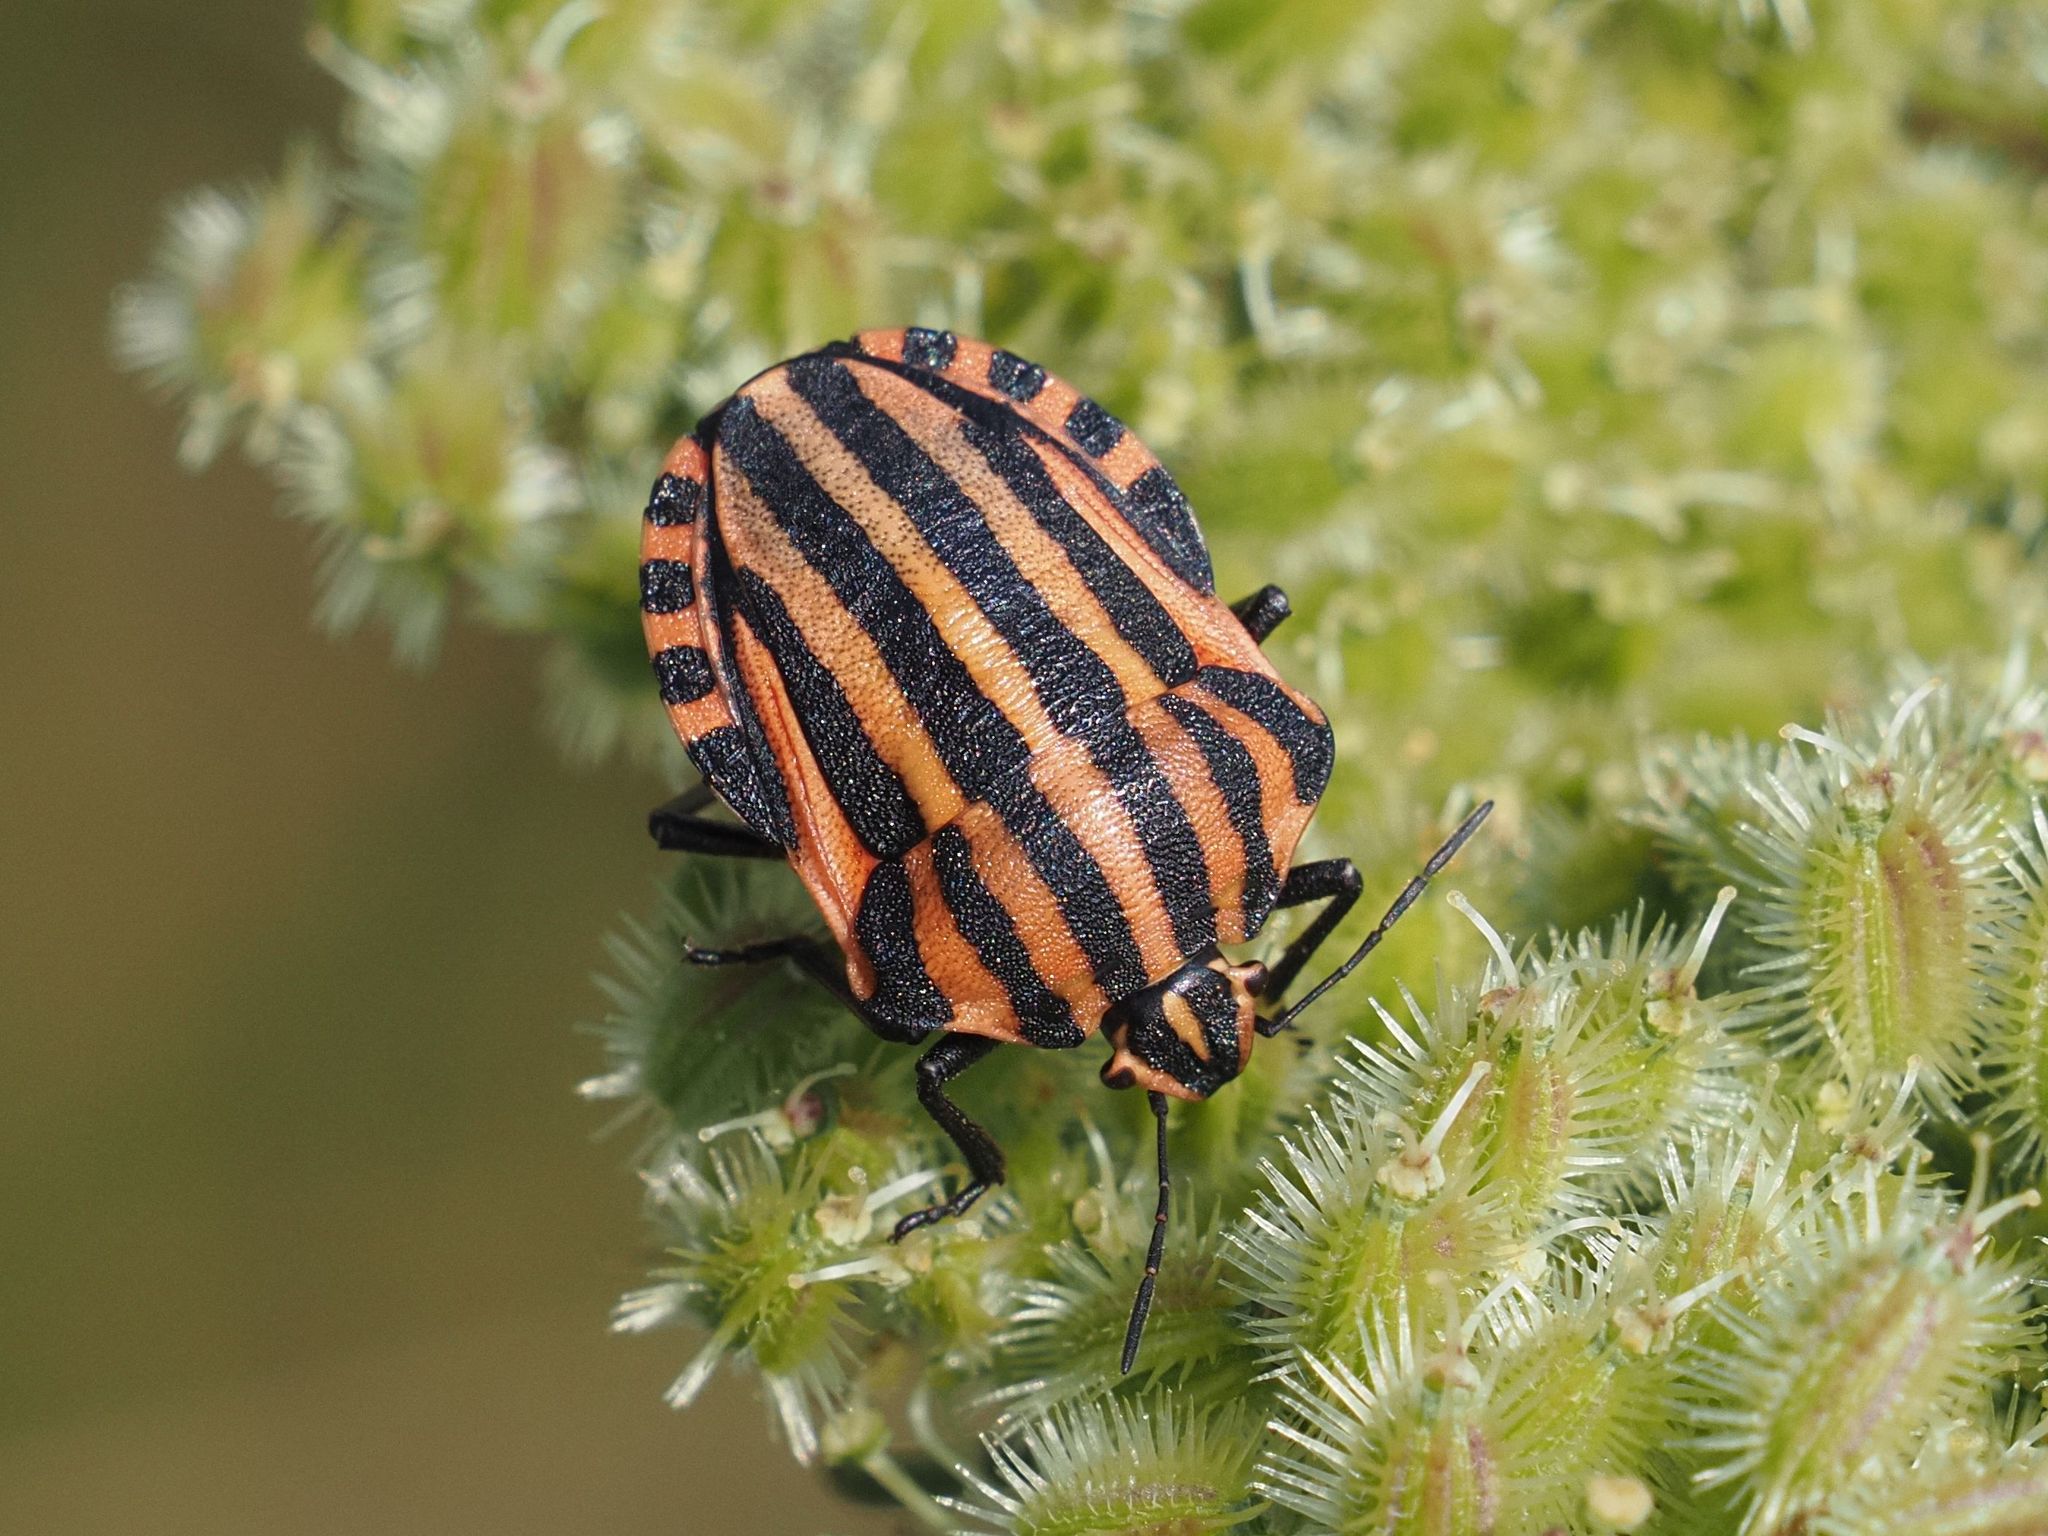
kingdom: Animalia
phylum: Arthropoda
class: Insecta
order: Hemiptera
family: Pentatomidae
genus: Graphosoma
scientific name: Graphosoma italicum
